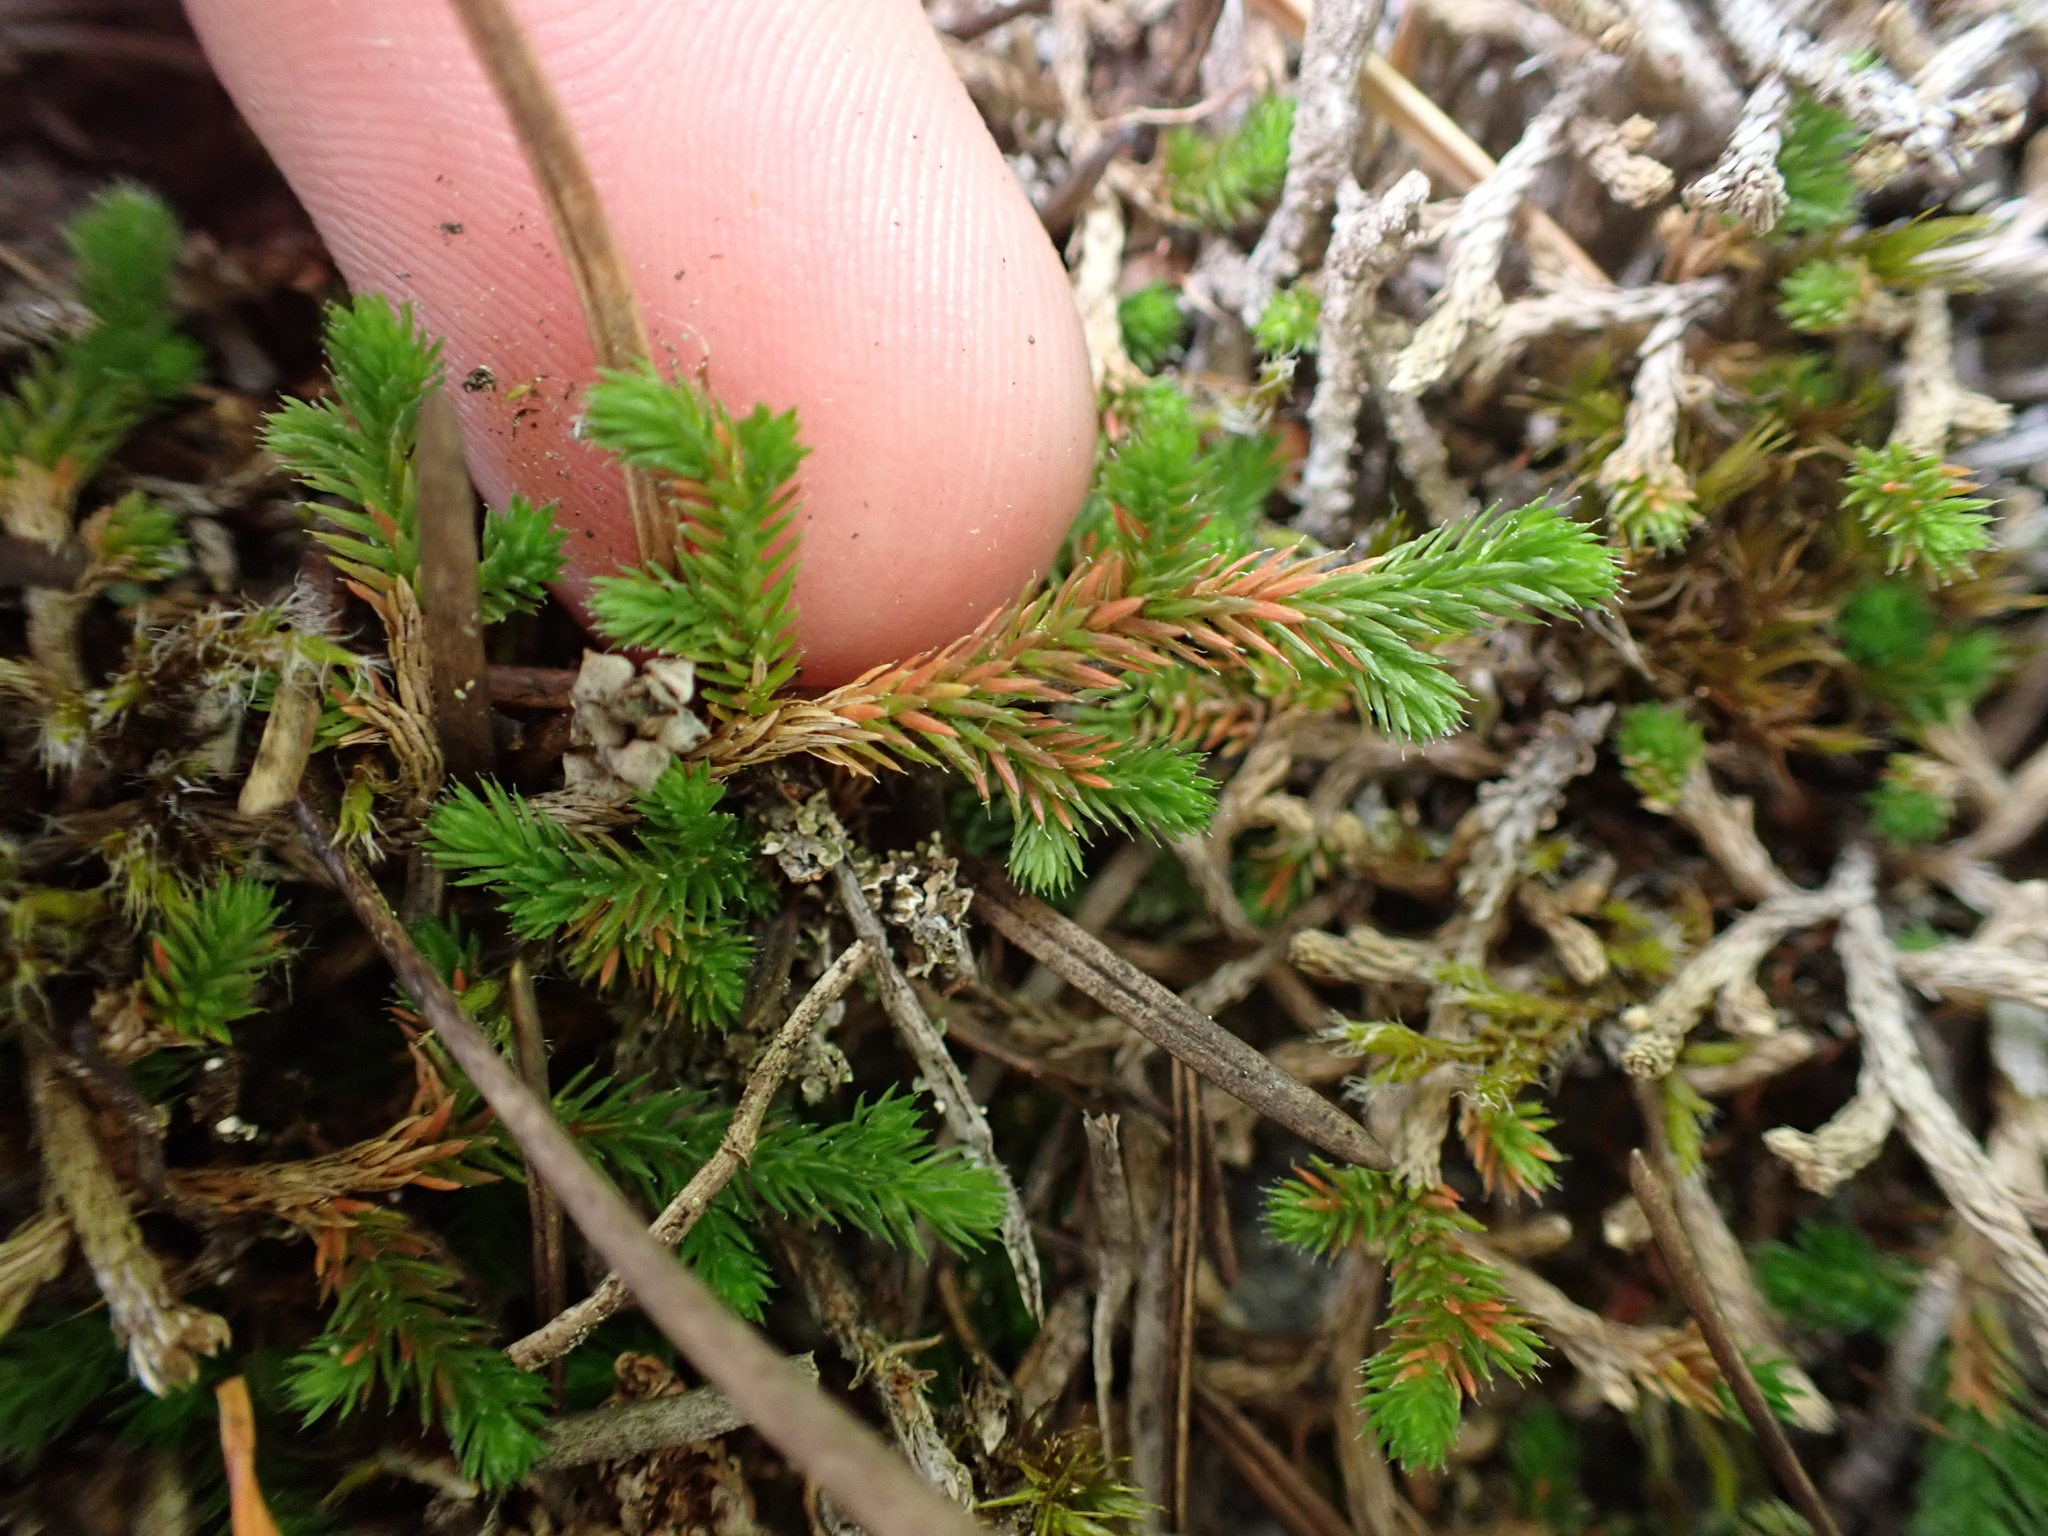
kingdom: Plantae
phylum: Tracheophyta
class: Lycopodiopsida
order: Selaginellales
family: Selaginellaceae
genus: Selaginella
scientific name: Selaginella wallacei
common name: Wallace's selaginella
